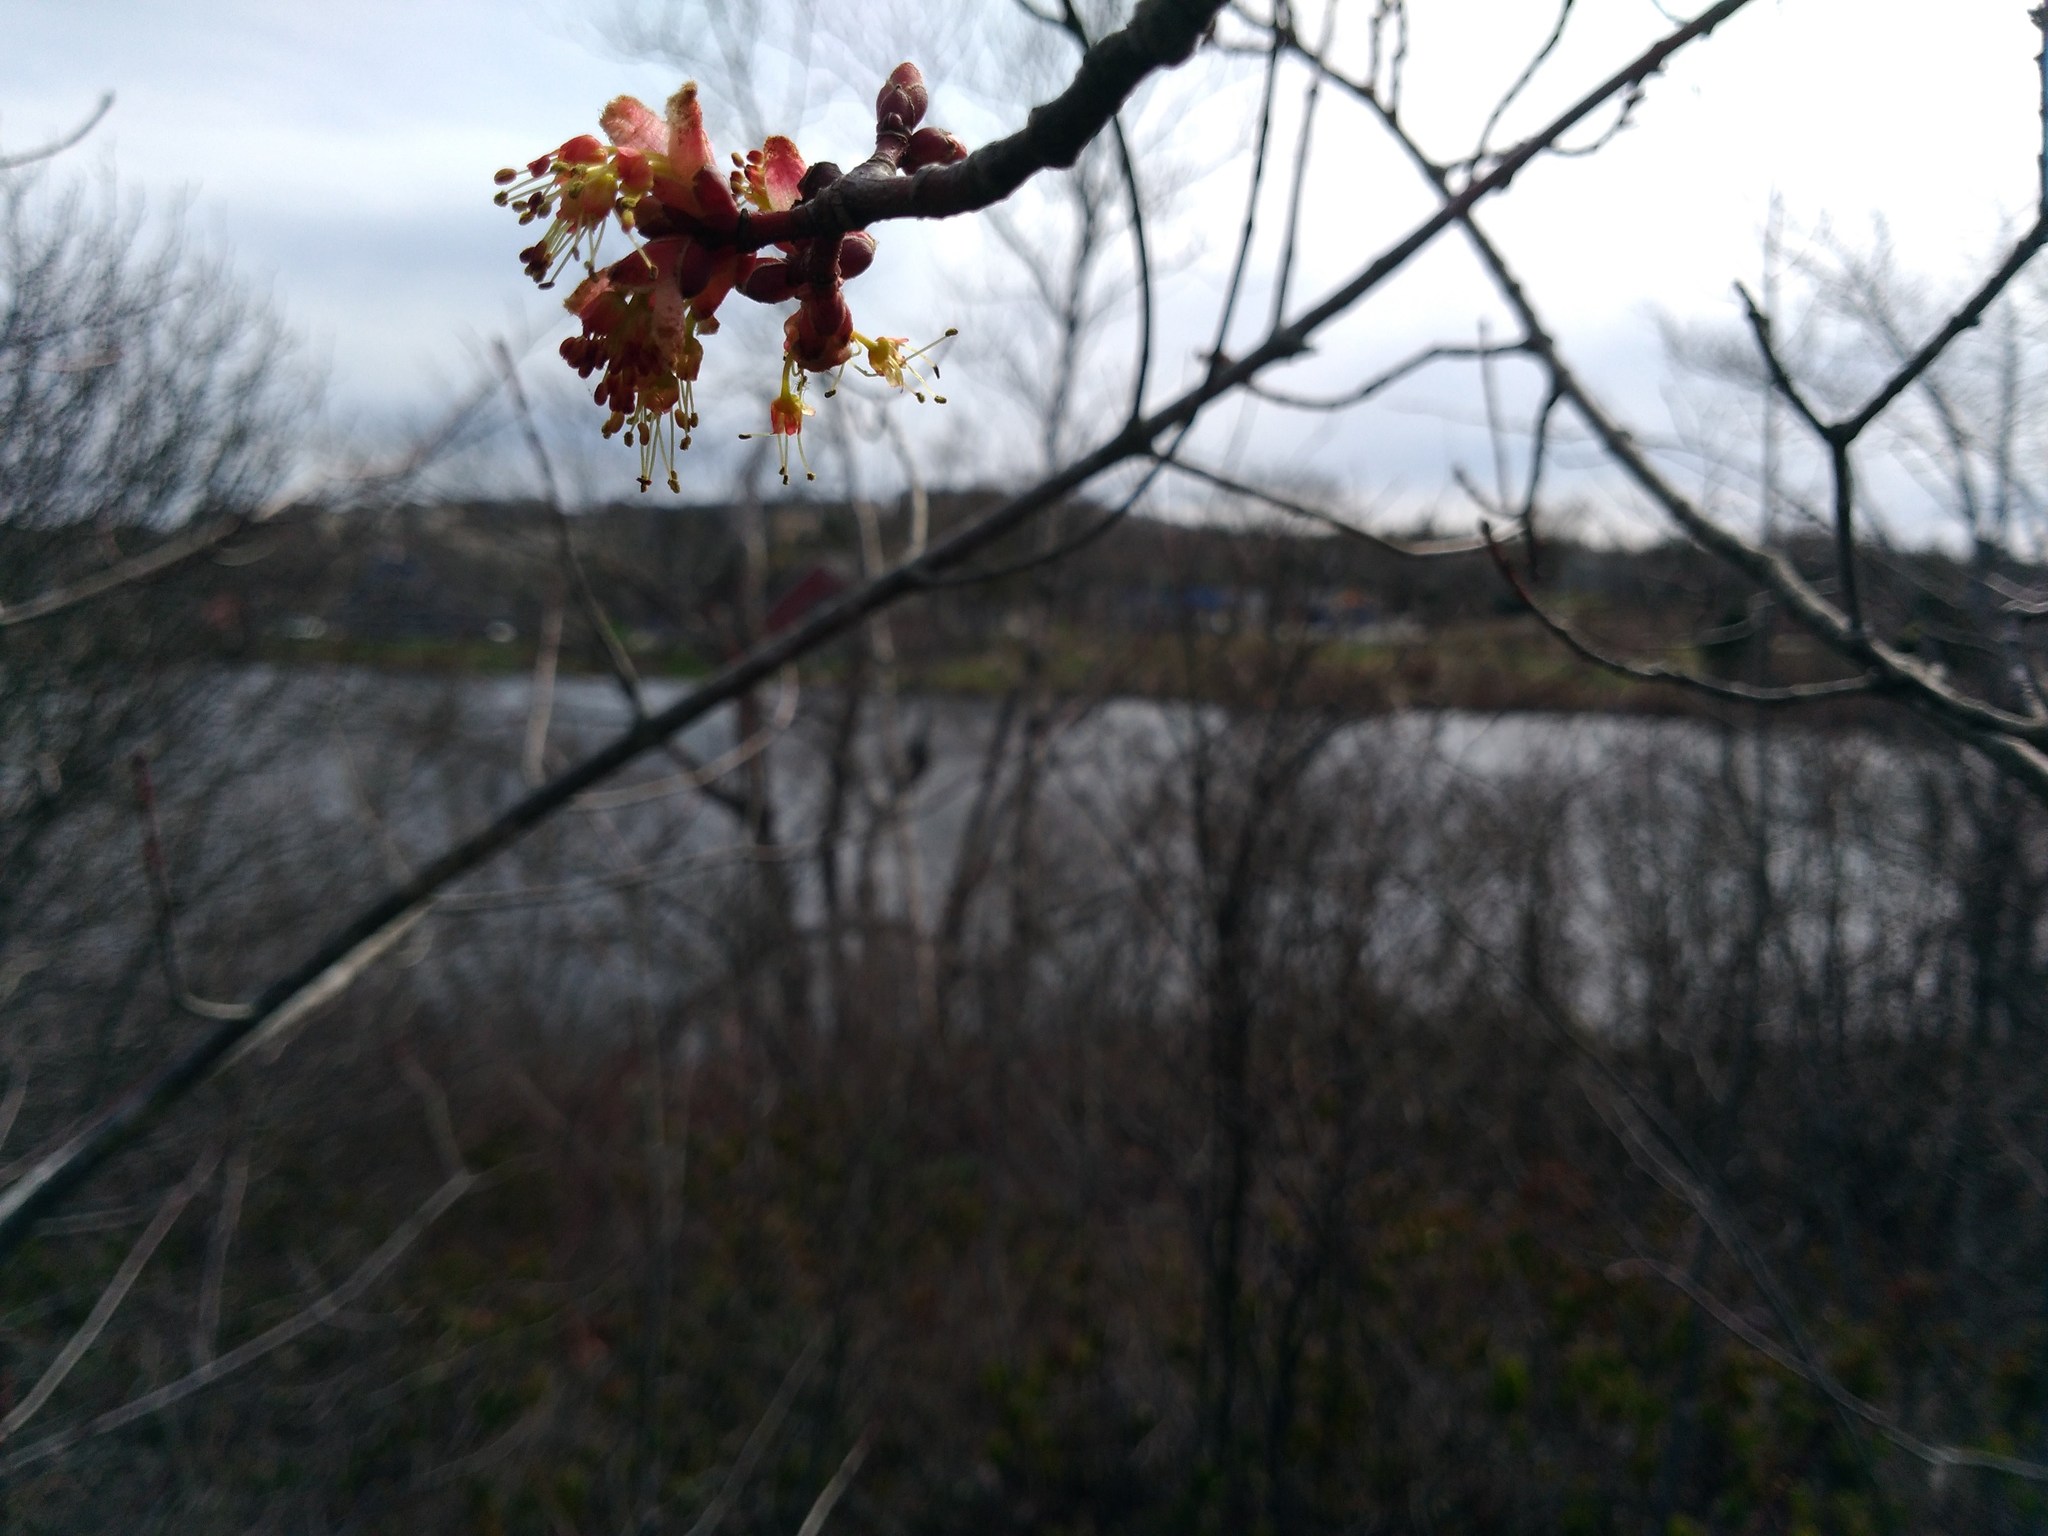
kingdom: Plantae
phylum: Tracheophyta
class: Magnoliopsida
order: Sapindales
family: Sapindaceae
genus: Acer
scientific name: Acer rubrum
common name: Red maple
